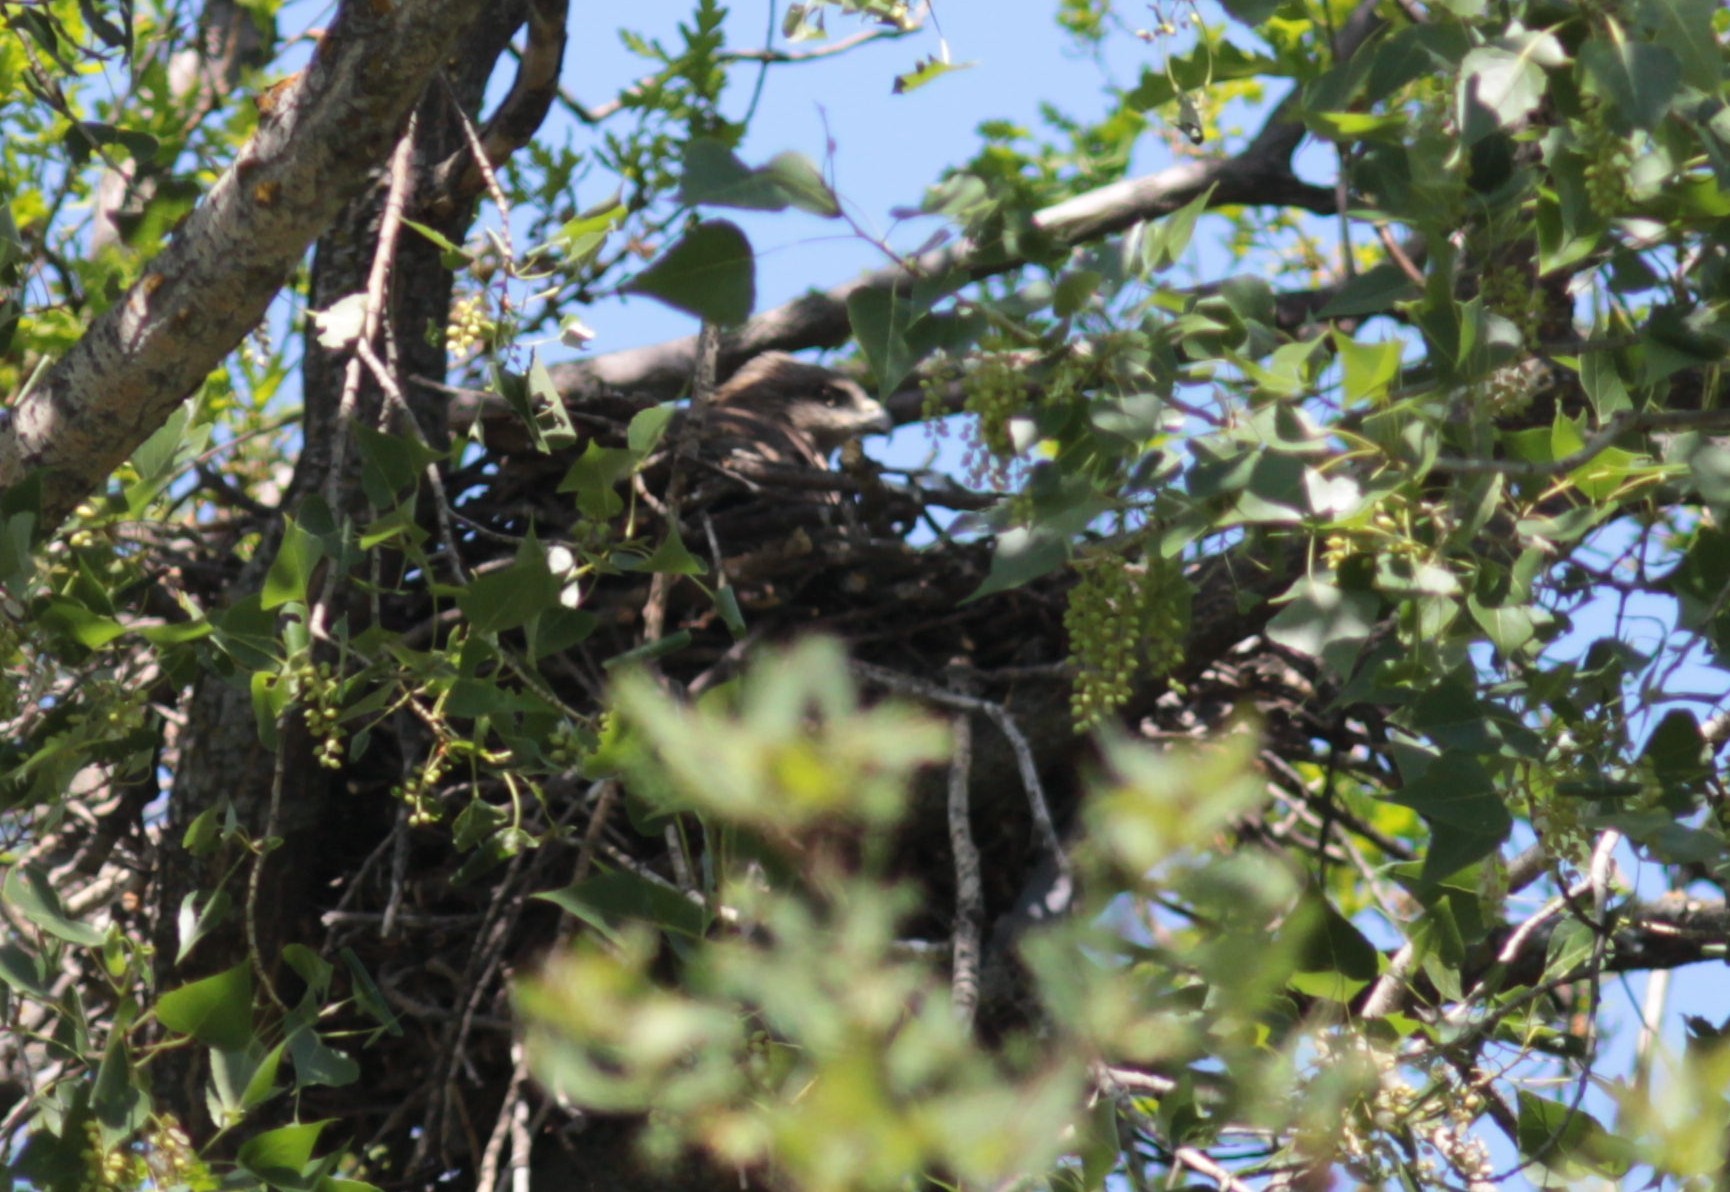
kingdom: Animalia
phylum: Chordata
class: Aves
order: Accipitriformes
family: Accipitridae
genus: Milvus
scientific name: Milvus migrans
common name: Black kite
